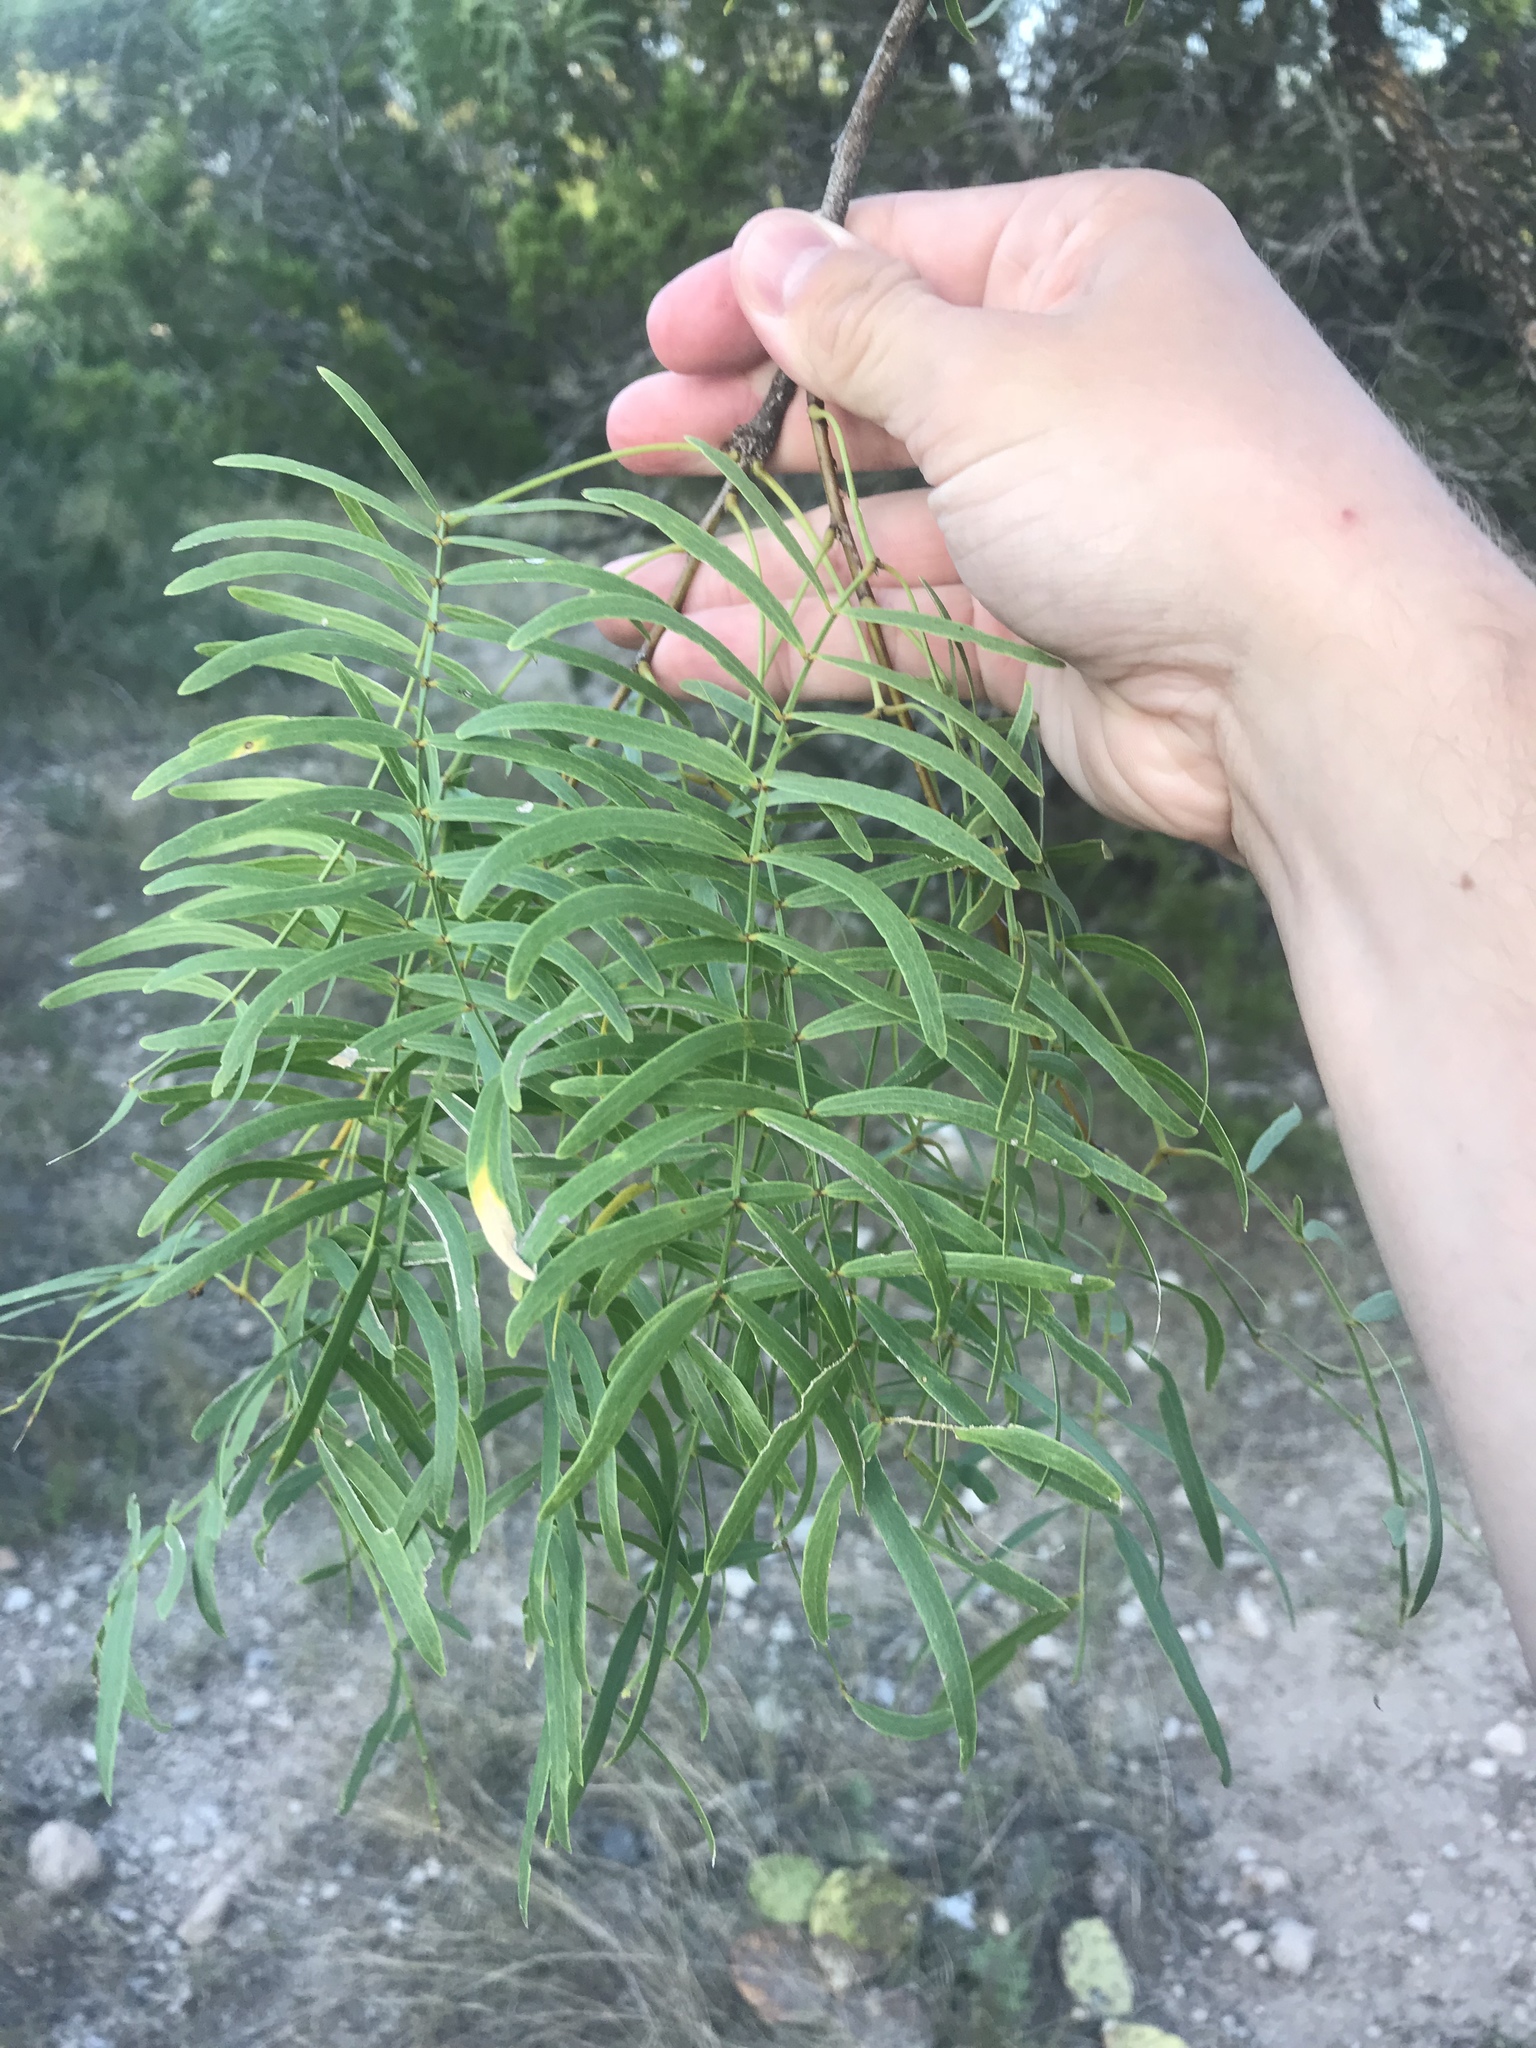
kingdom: Plantae
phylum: Tracheophyta
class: Magnoliopsida
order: Fabales
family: Fabaceae
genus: Prosopis
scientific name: Prosopis glandulosa
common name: Honey mesquite
